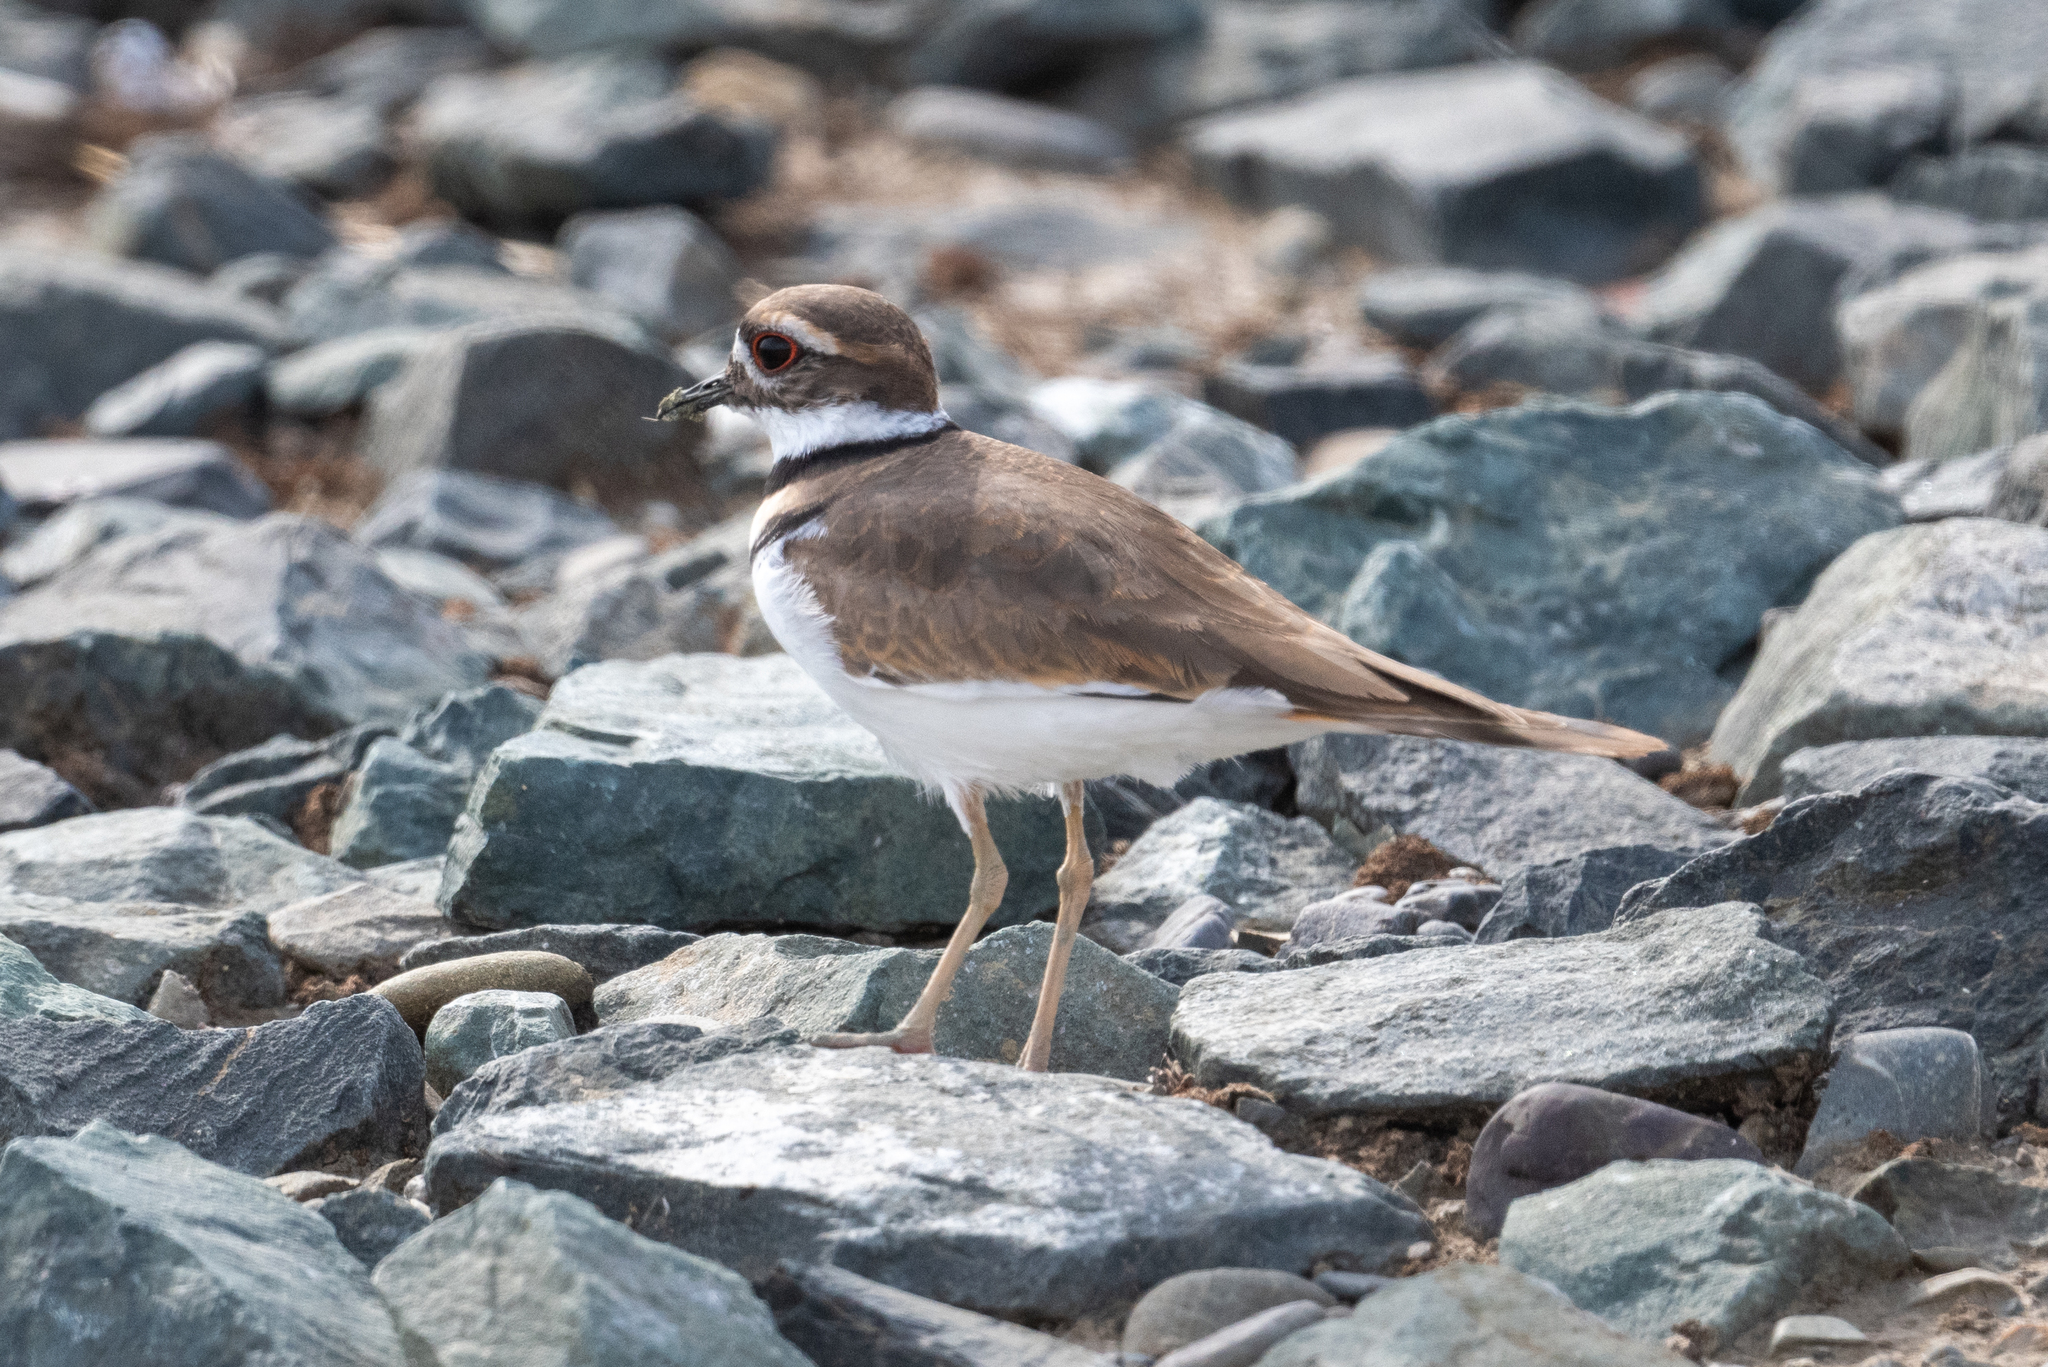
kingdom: Animalia
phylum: Chordata
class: Aves
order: Charadriiformes
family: Charadriidae
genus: Charadrius
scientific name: Charadrius vociferus
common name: Killdeer
